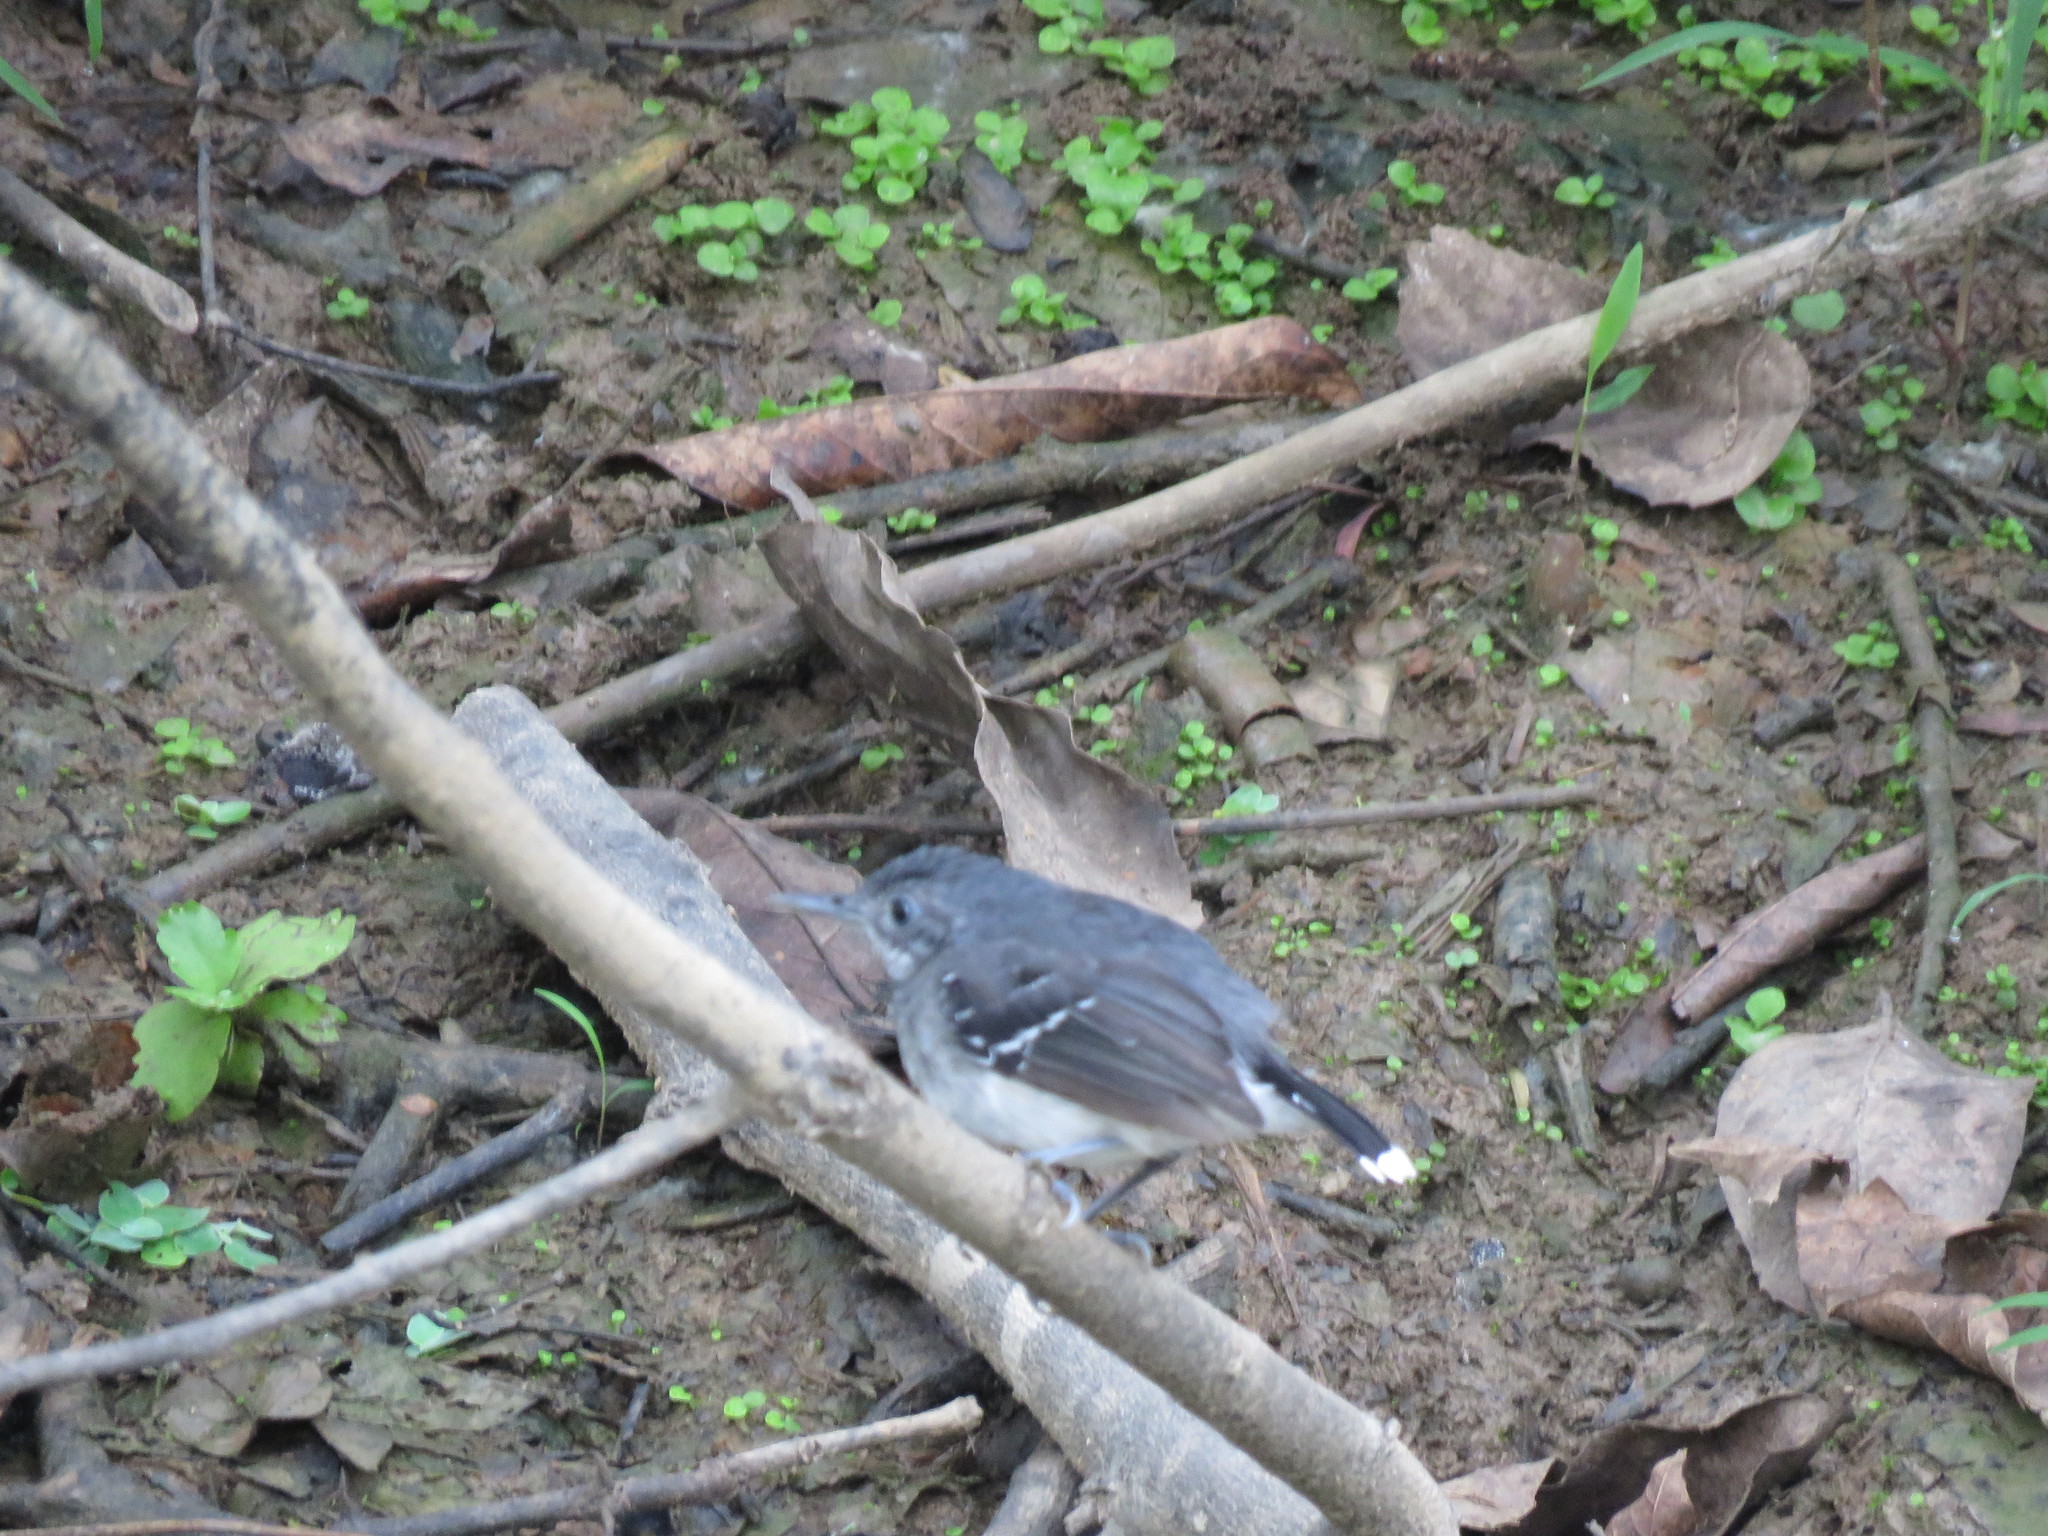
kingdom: Animalia
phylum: Chordata
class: Aves
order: Passeriformes
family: Thamnophilidae
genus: Hypocnemoides
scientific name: Hypocnemoides maculicauda
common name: Band-tailed antbird
